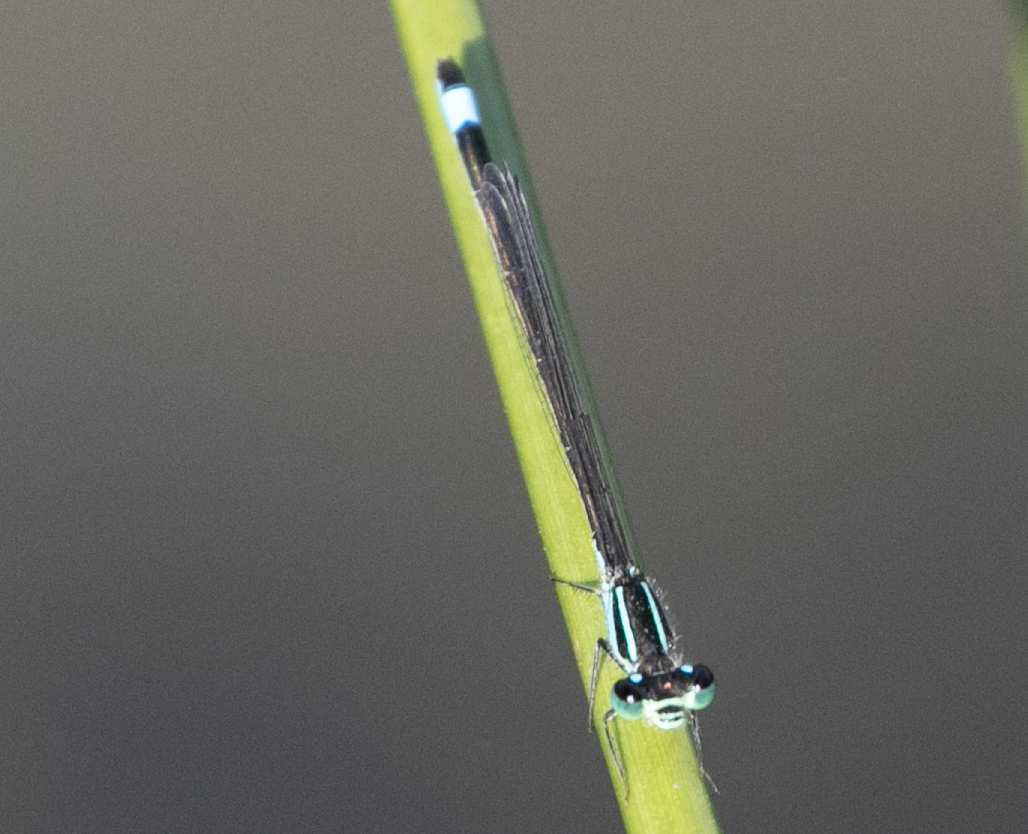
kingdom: Animalia
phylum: Arthropoda
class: Insecta
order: Odonata
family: Coenagrionidae
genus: Ischnura
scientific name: Ischnura elegans
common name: Blue-tailed damselfly
